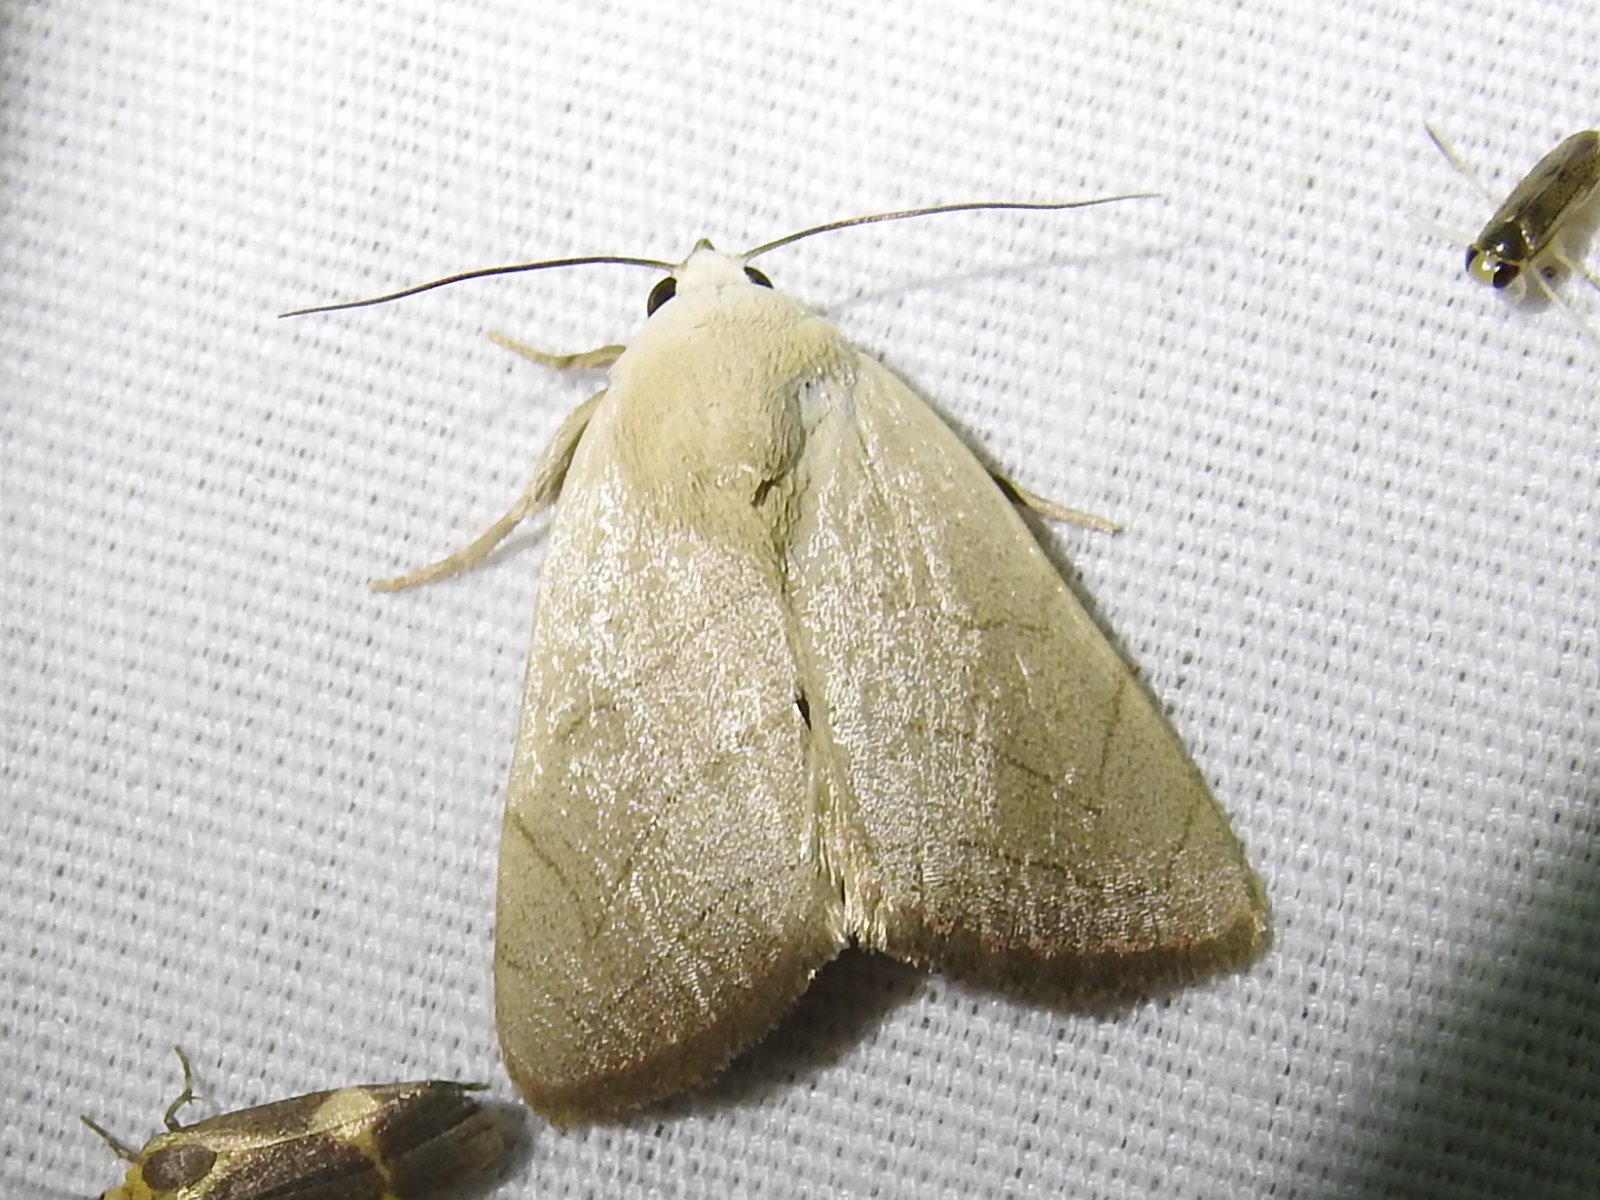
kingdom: Animalia
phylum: Arthropoda
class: Insecta
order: Lepidoptera
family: Noctuidae
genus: Bagisara
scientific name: Bagisara oula
